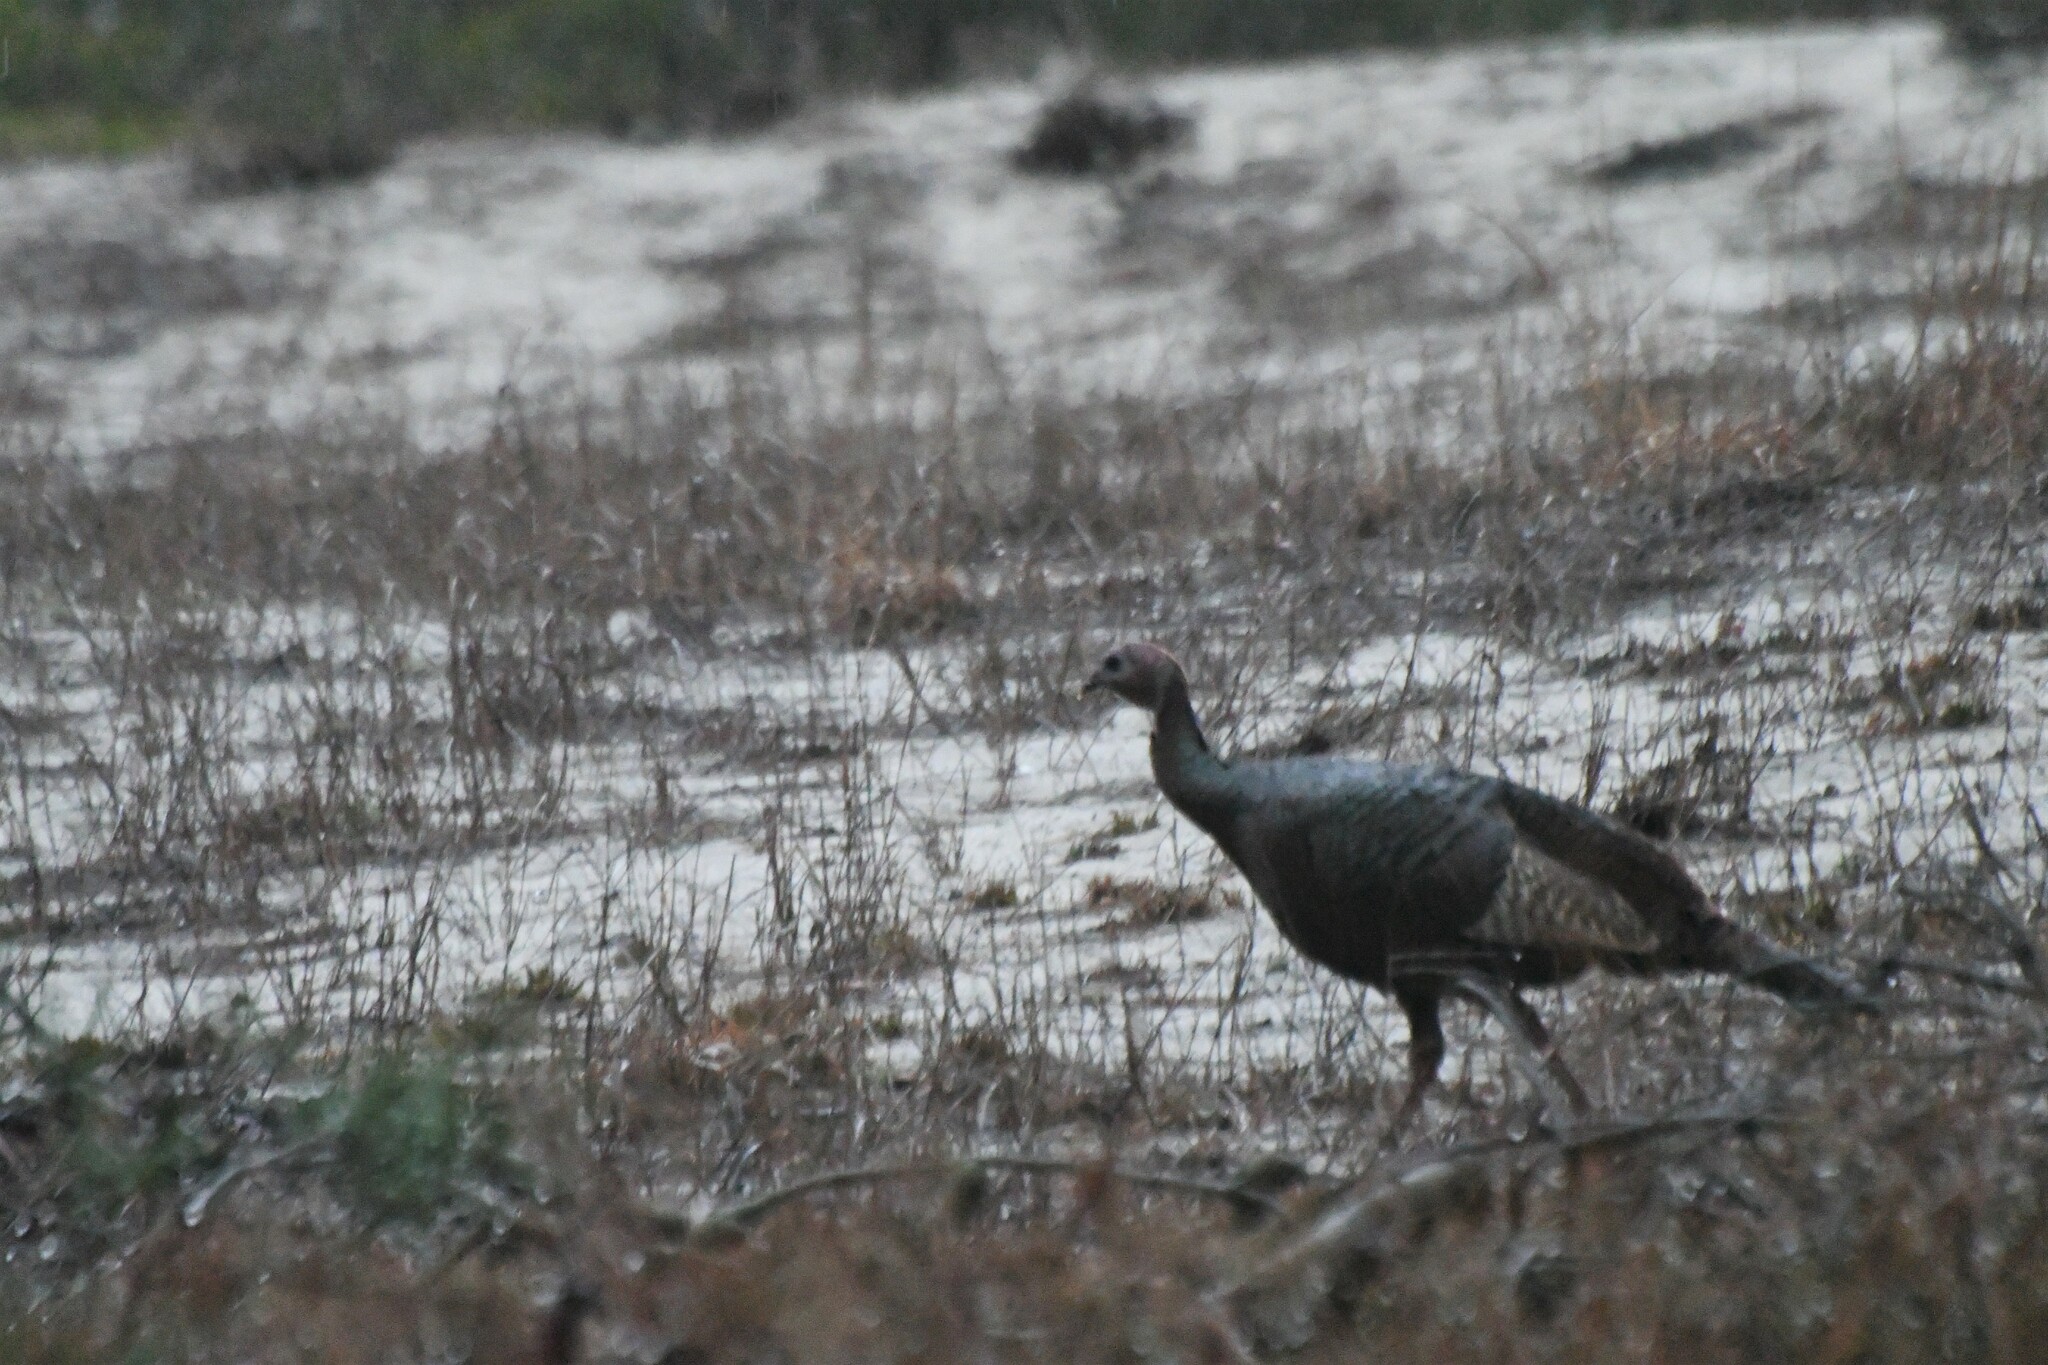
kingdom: Animalia
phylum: Chordata
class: Aves
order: Galliformes
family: Phasianidae
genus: Meleagris
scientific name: Meleagris gallopavo
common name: Wild turkey
